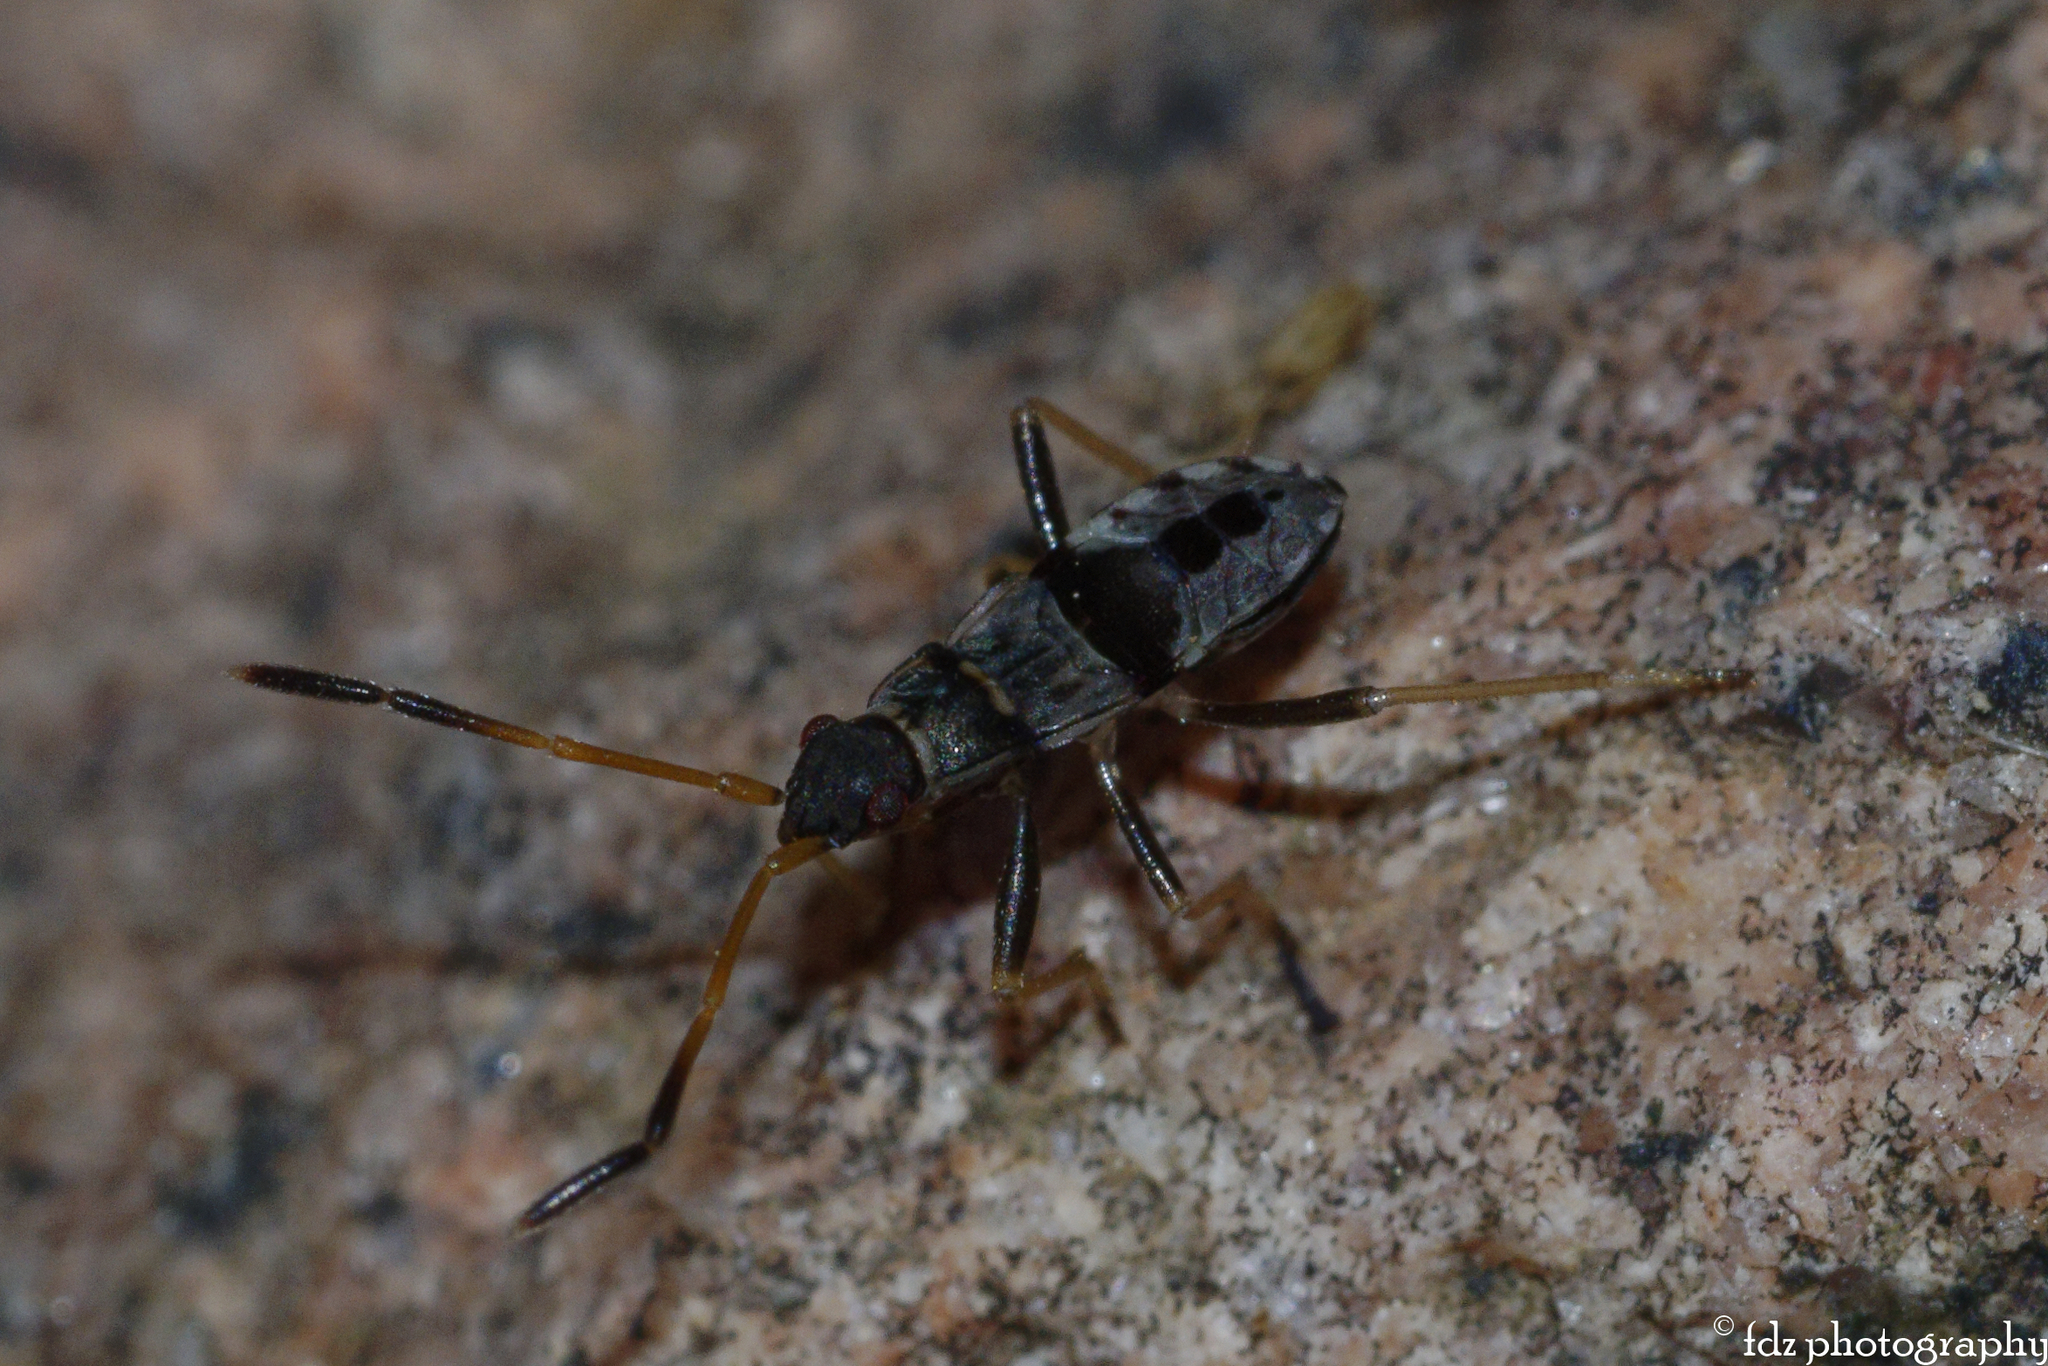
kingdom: Animalia
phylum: Arthropoda
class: Insecta
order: Hemiptera
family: Rhyparochromidae
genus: Beosus
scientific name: Beosus maritimus
